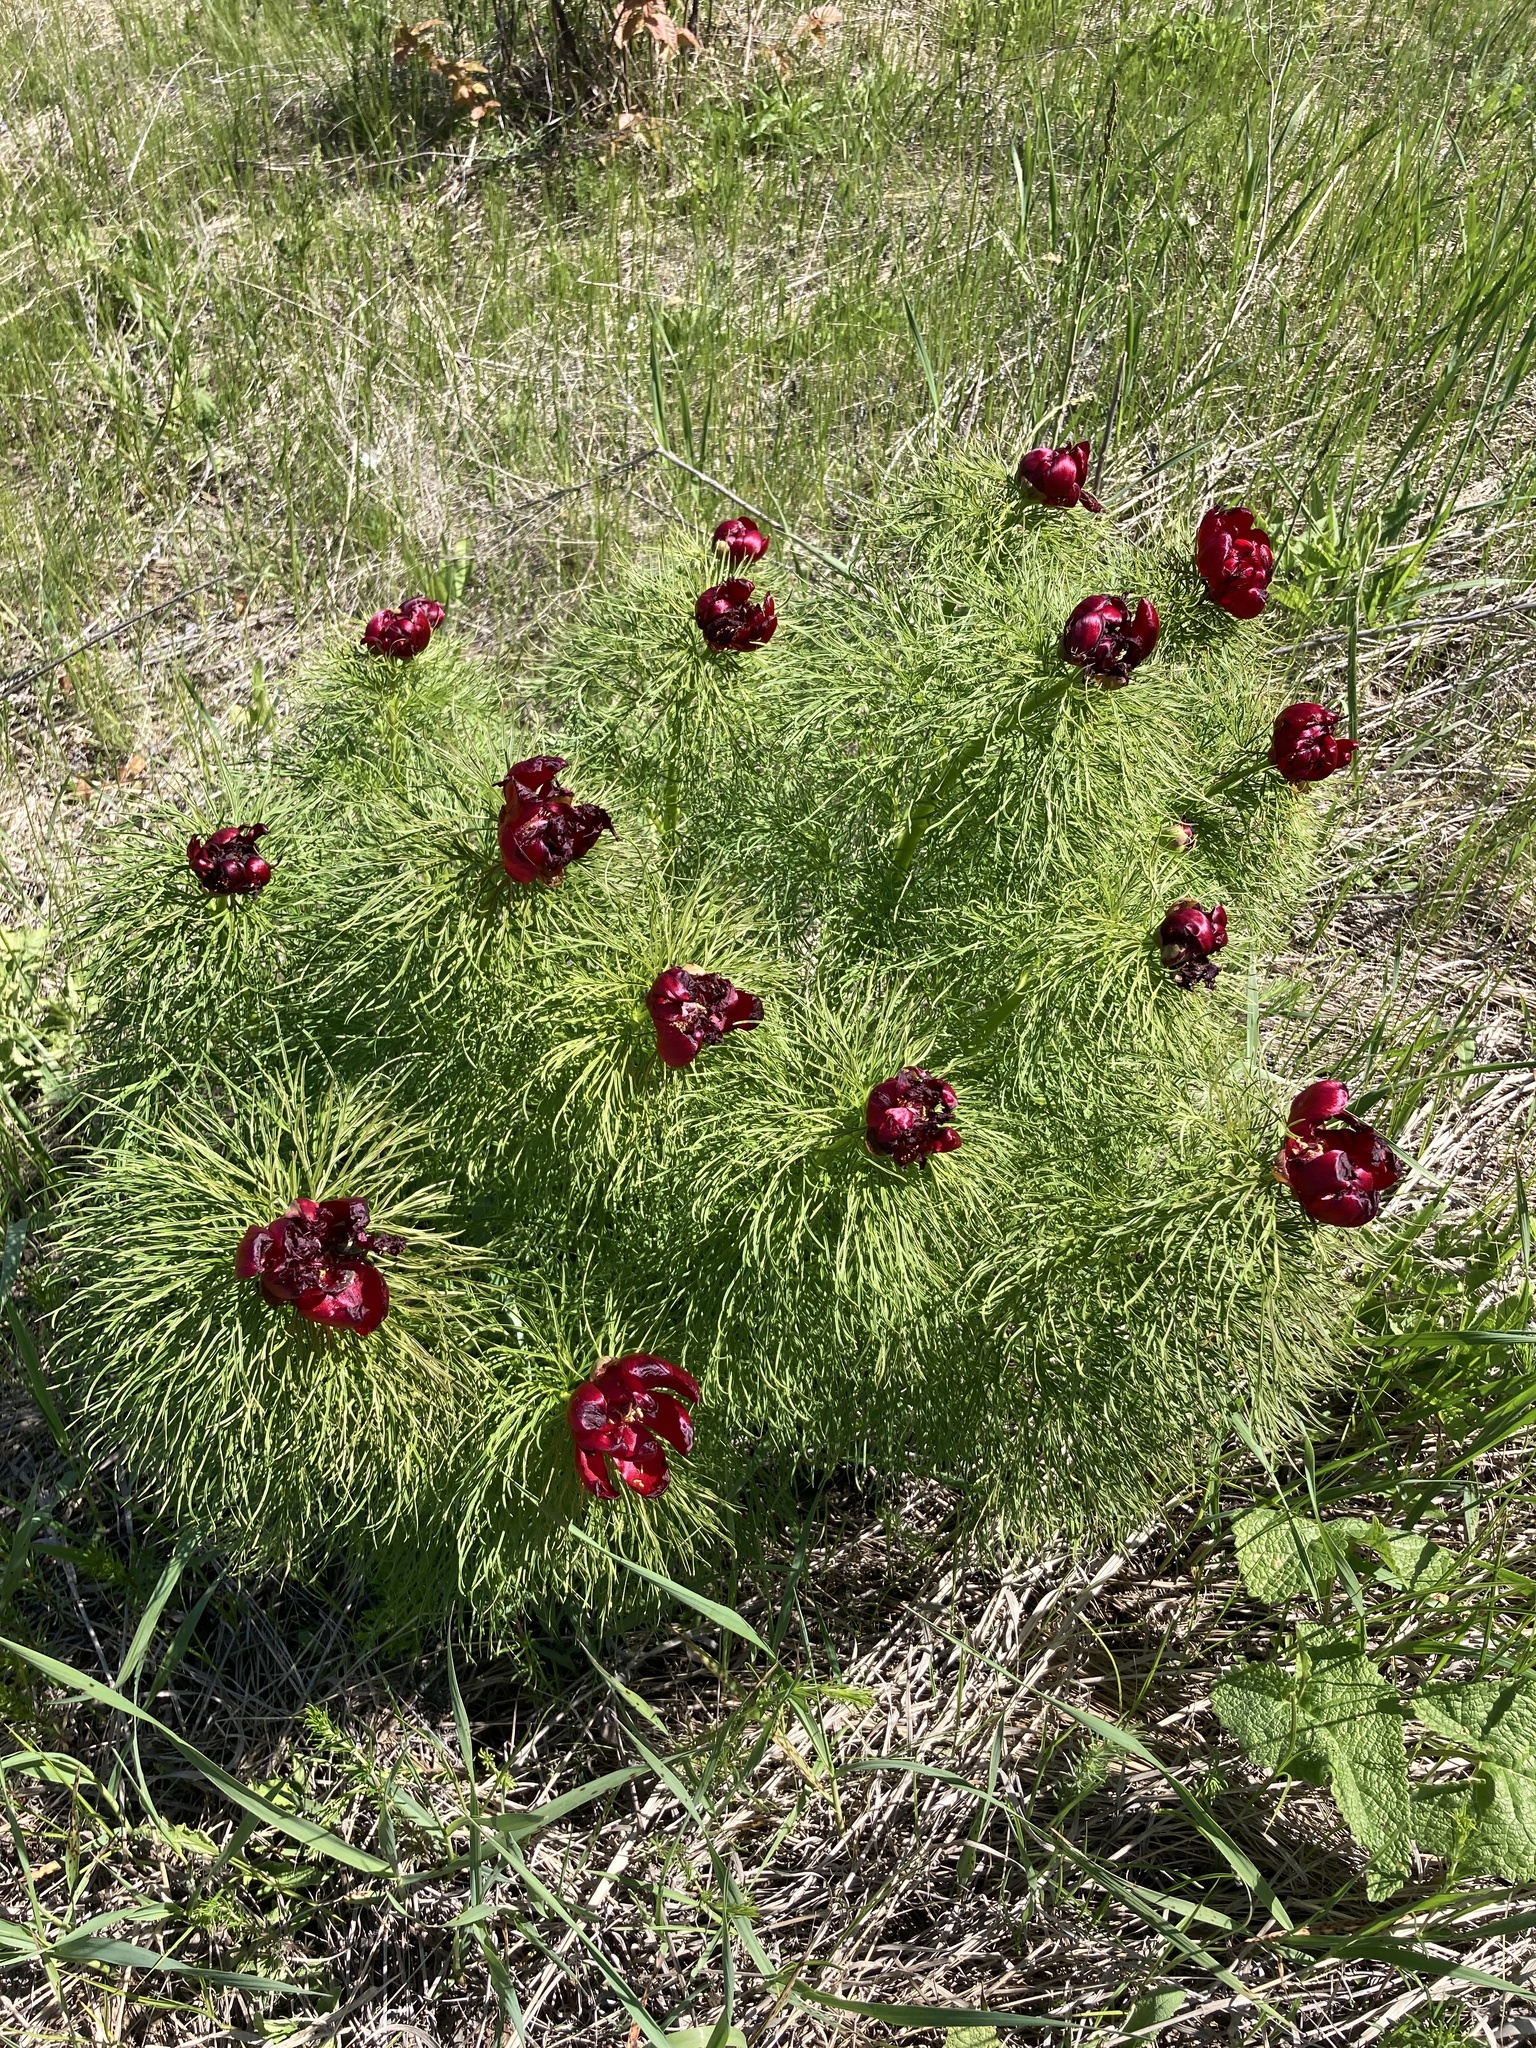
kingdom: Plantae
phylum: Tracheophyta
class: Magnoliopsida
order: Saxifragales
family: Paeoniaceae
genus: Paeonia
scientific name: Paeonia tenuifolia
